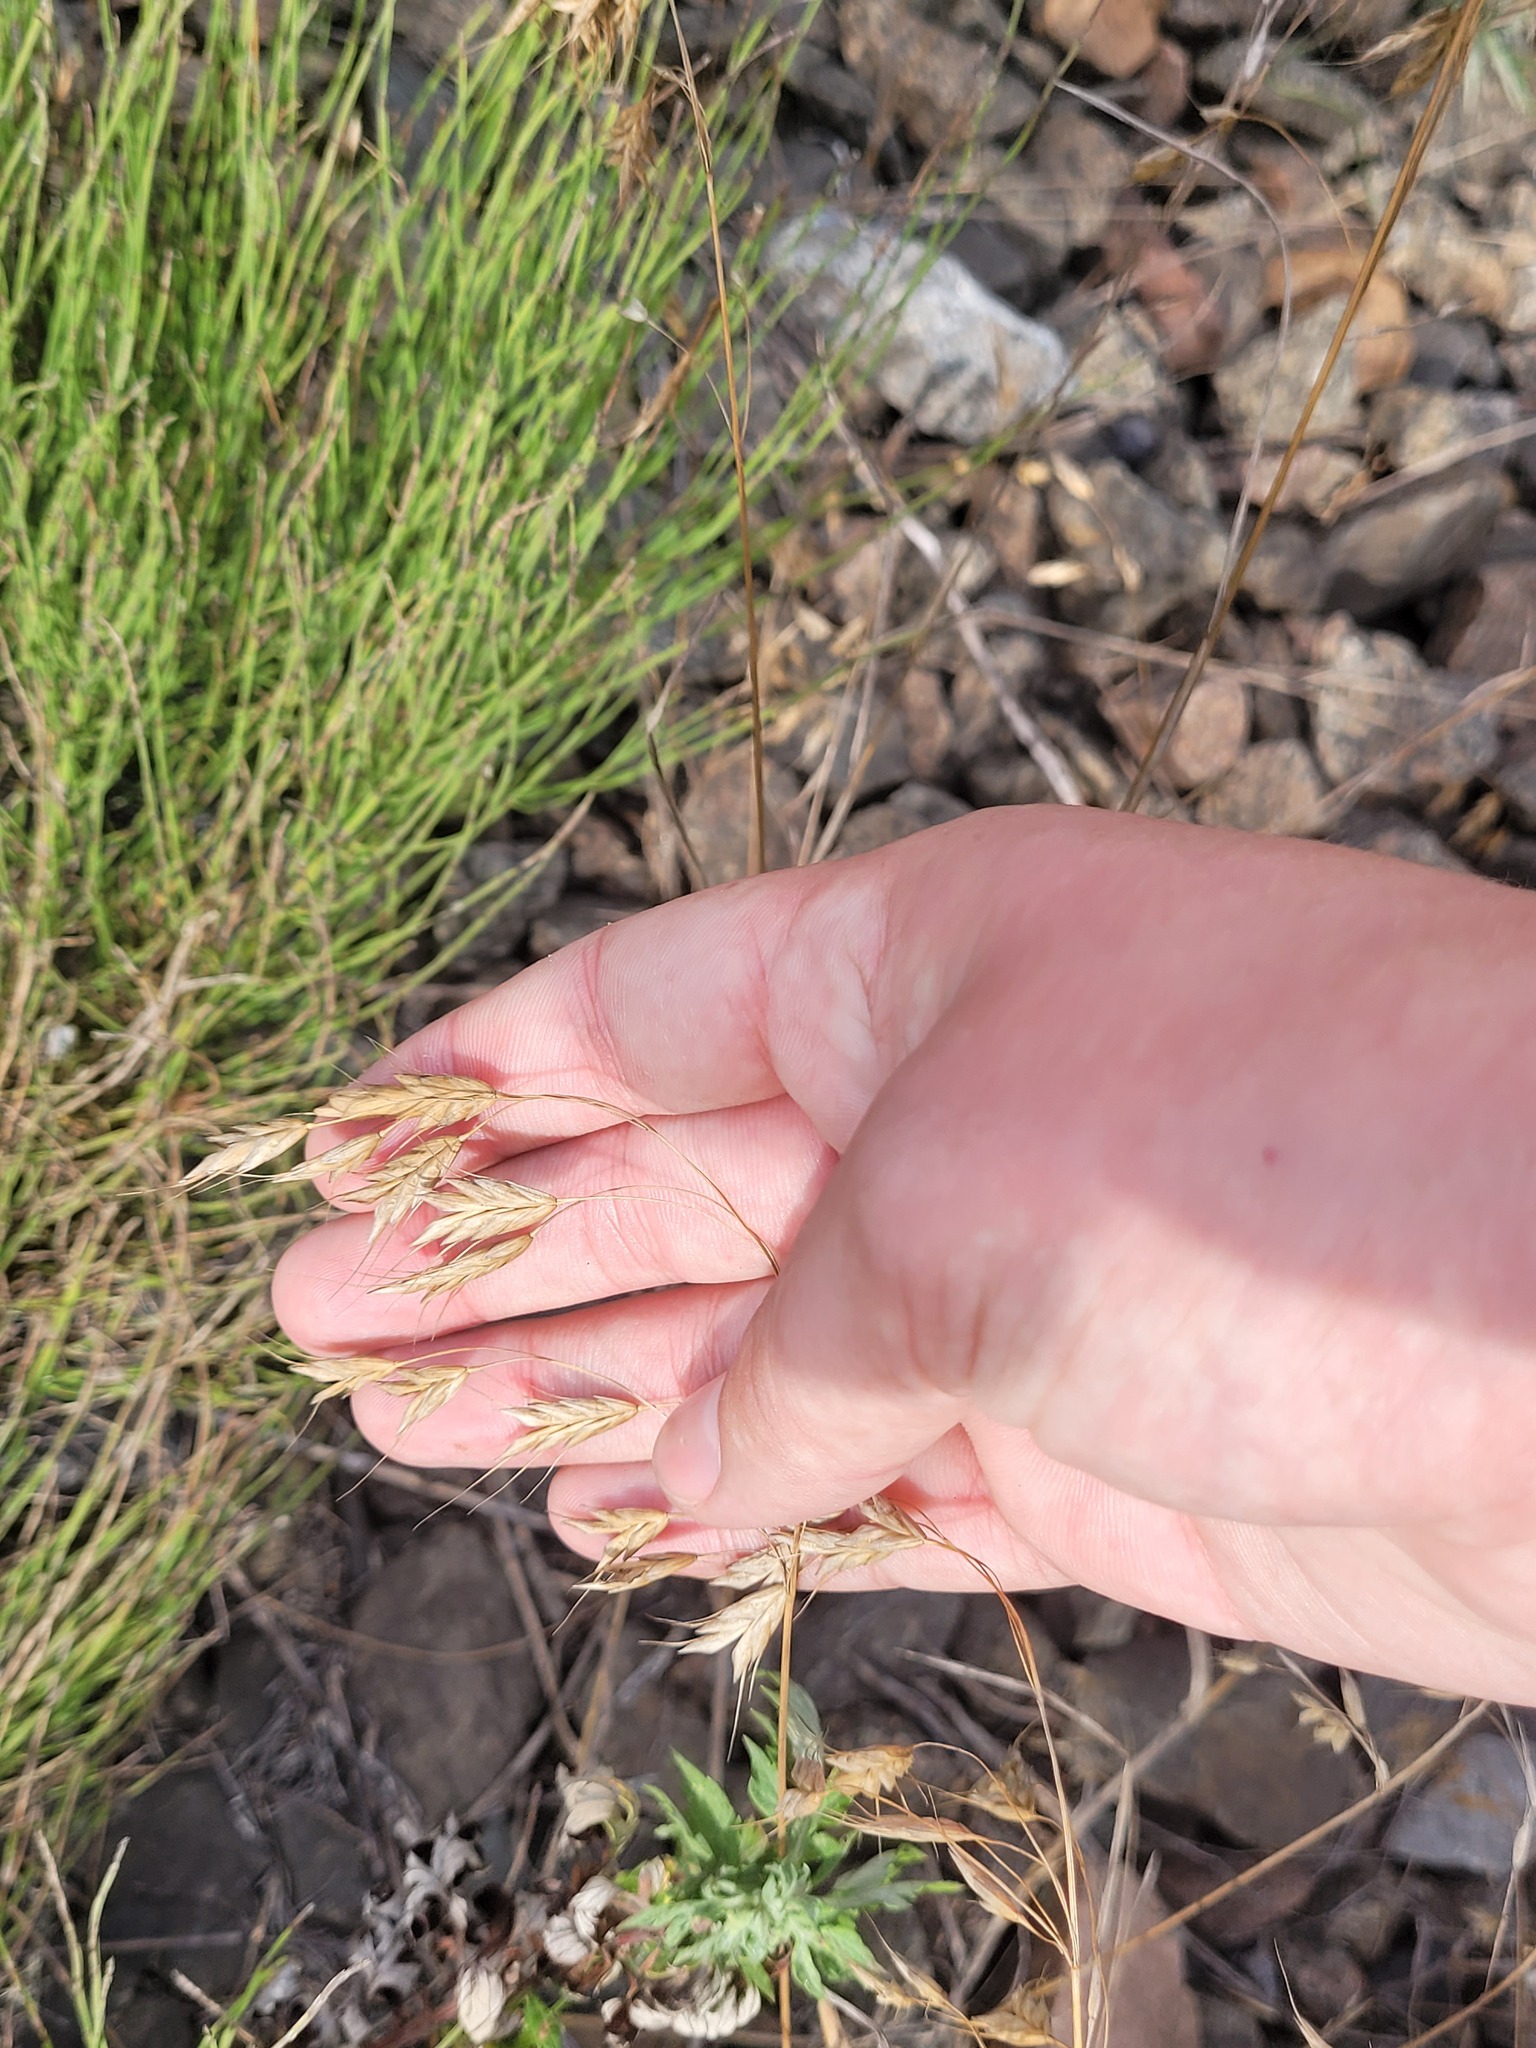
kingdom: Plantae
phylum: Tracheophyta
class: Liliopsida
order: Poales
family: Poaceae
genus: Bromus
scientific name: Bromus japonicus
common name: Japanese brome
